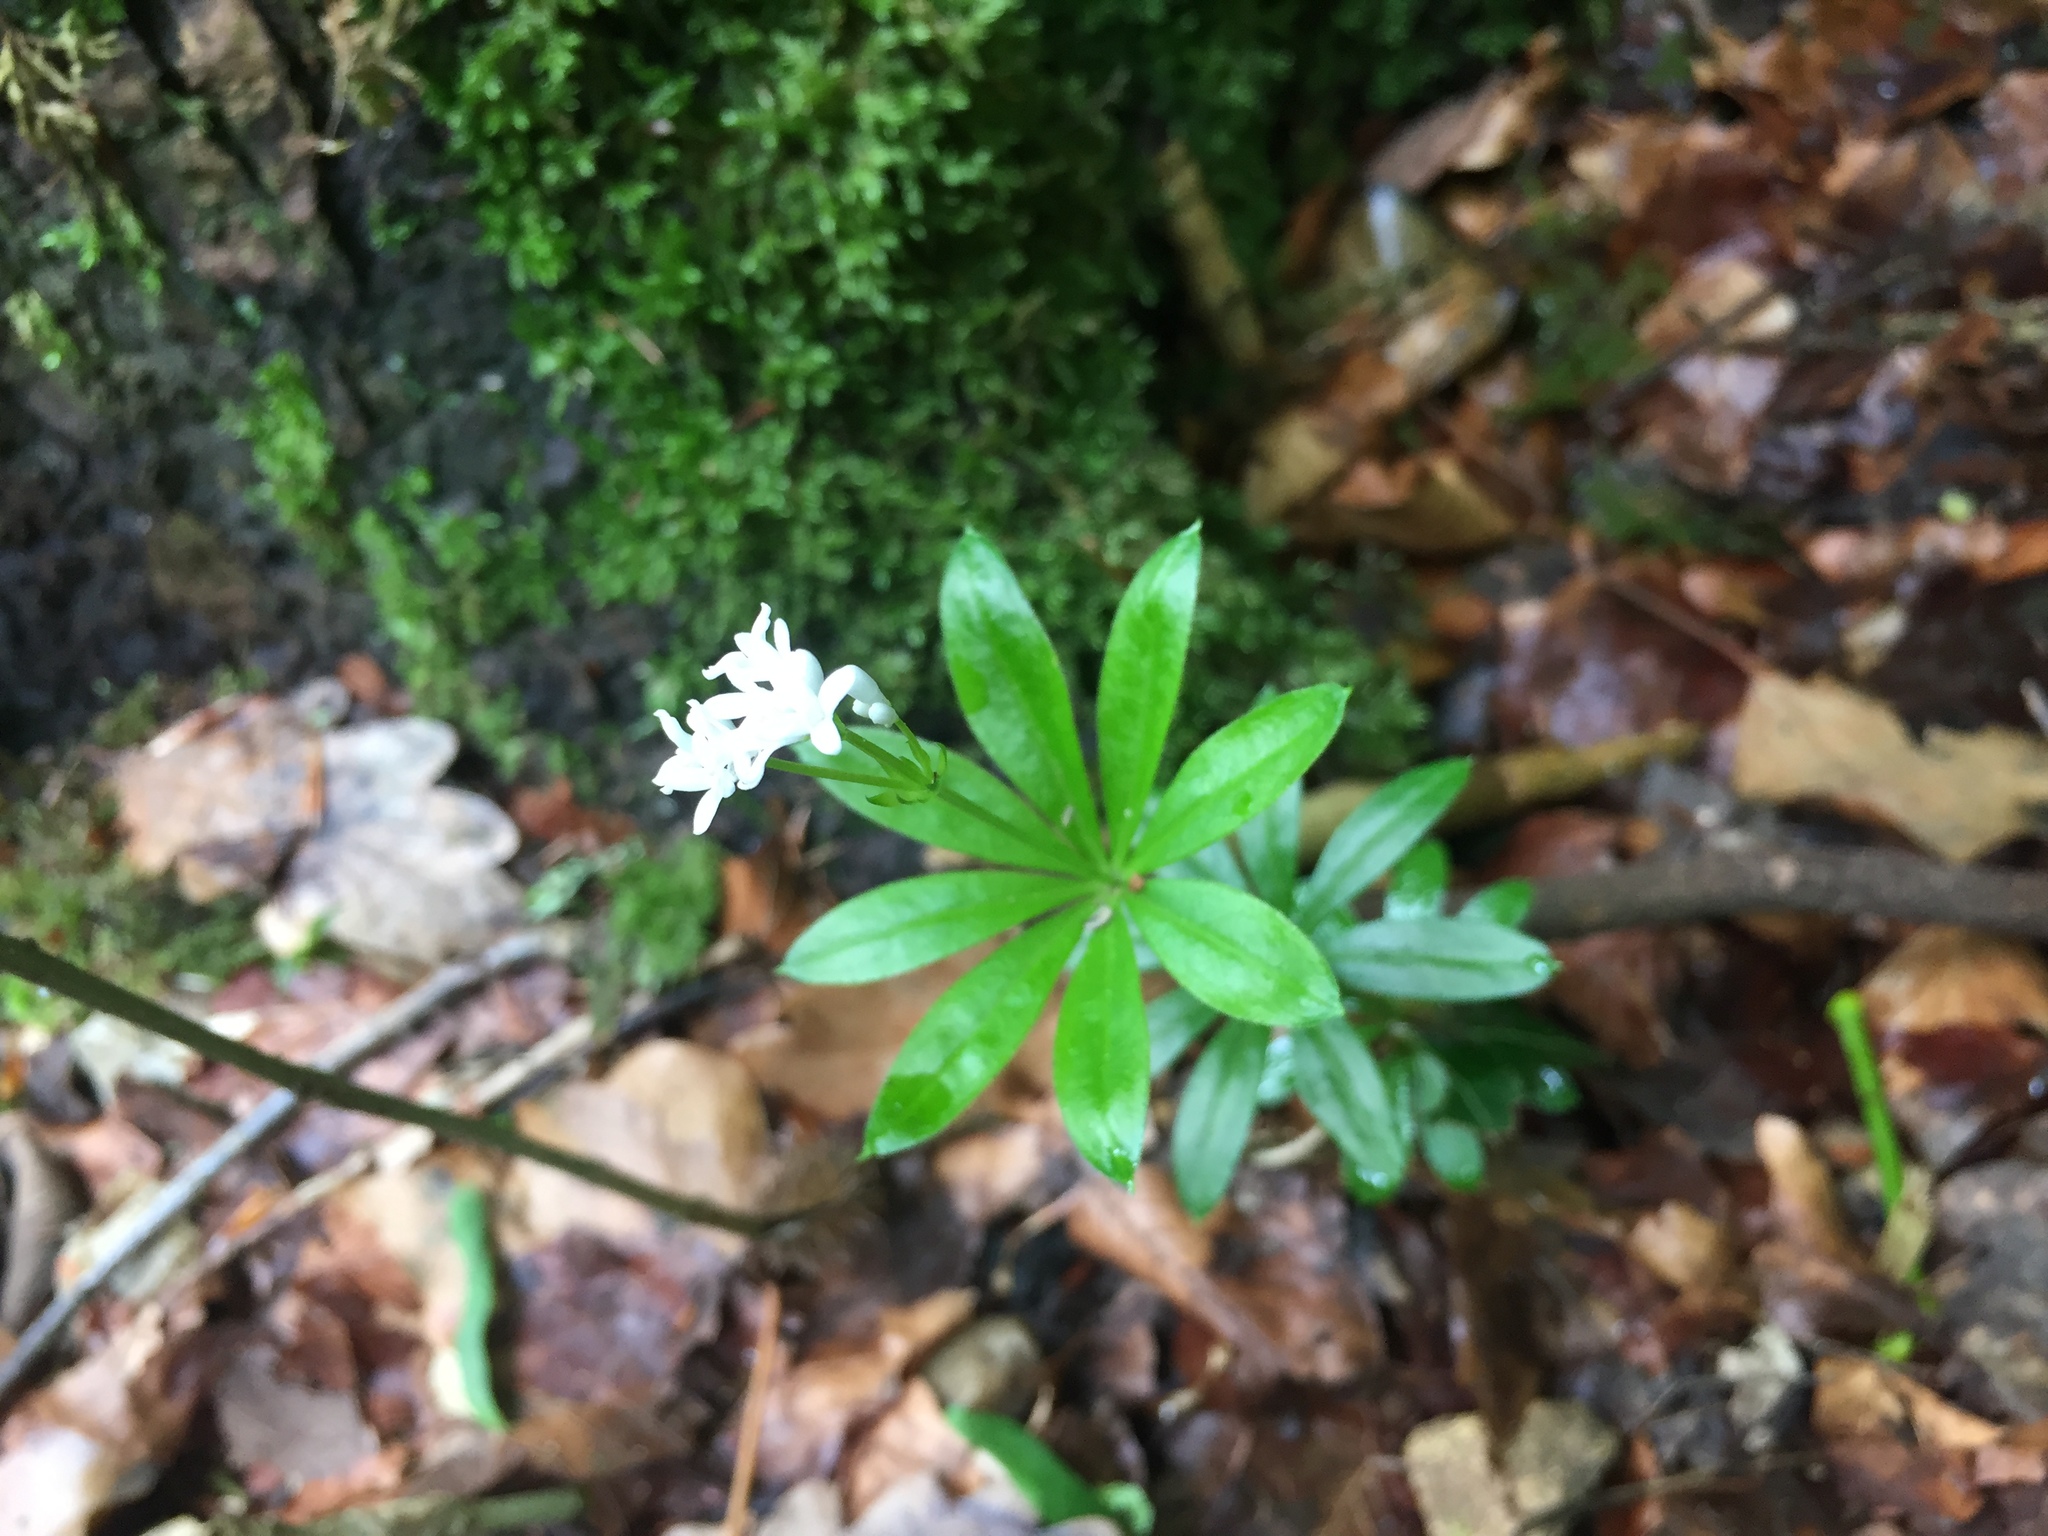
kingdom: Plantae
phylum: Tracheophyta
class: Magnoliopsida
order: Gentianales
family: Rubiaceae
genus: Galium
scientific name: Galium odoratum
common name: Sweet woodruff
